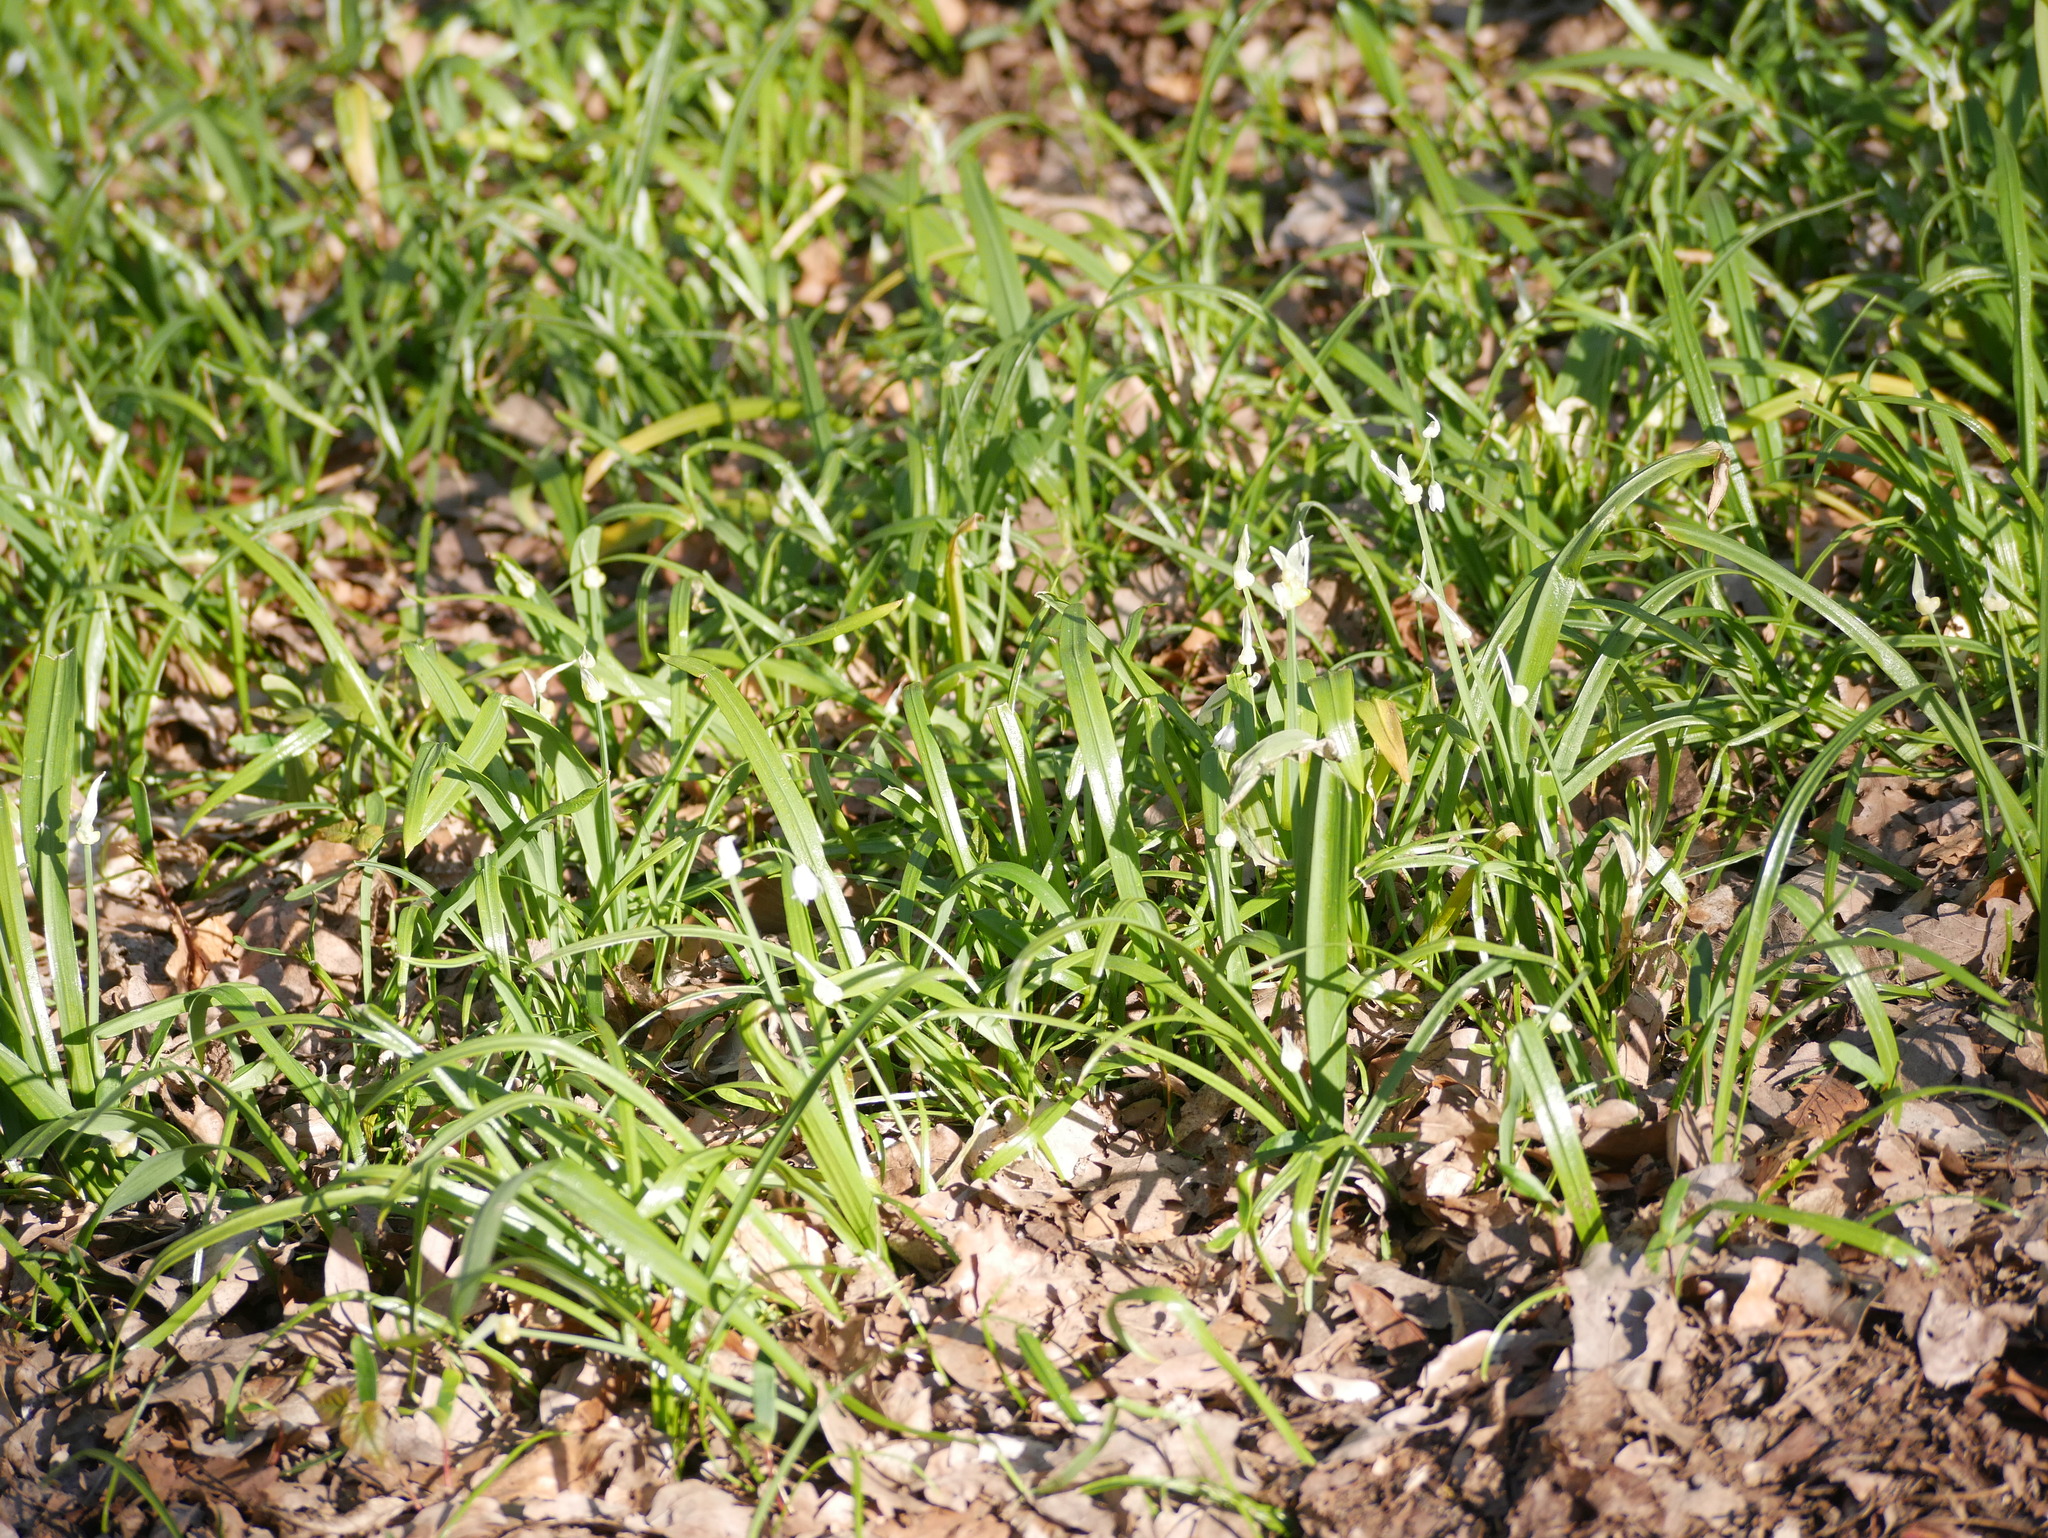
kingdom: Plantae
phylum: Tracheophyta
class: Liliopsida
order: Asparagales
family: Amaryllidaceae
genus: Allium
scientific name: Allium paradoxum
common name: Few-flowered garlic
